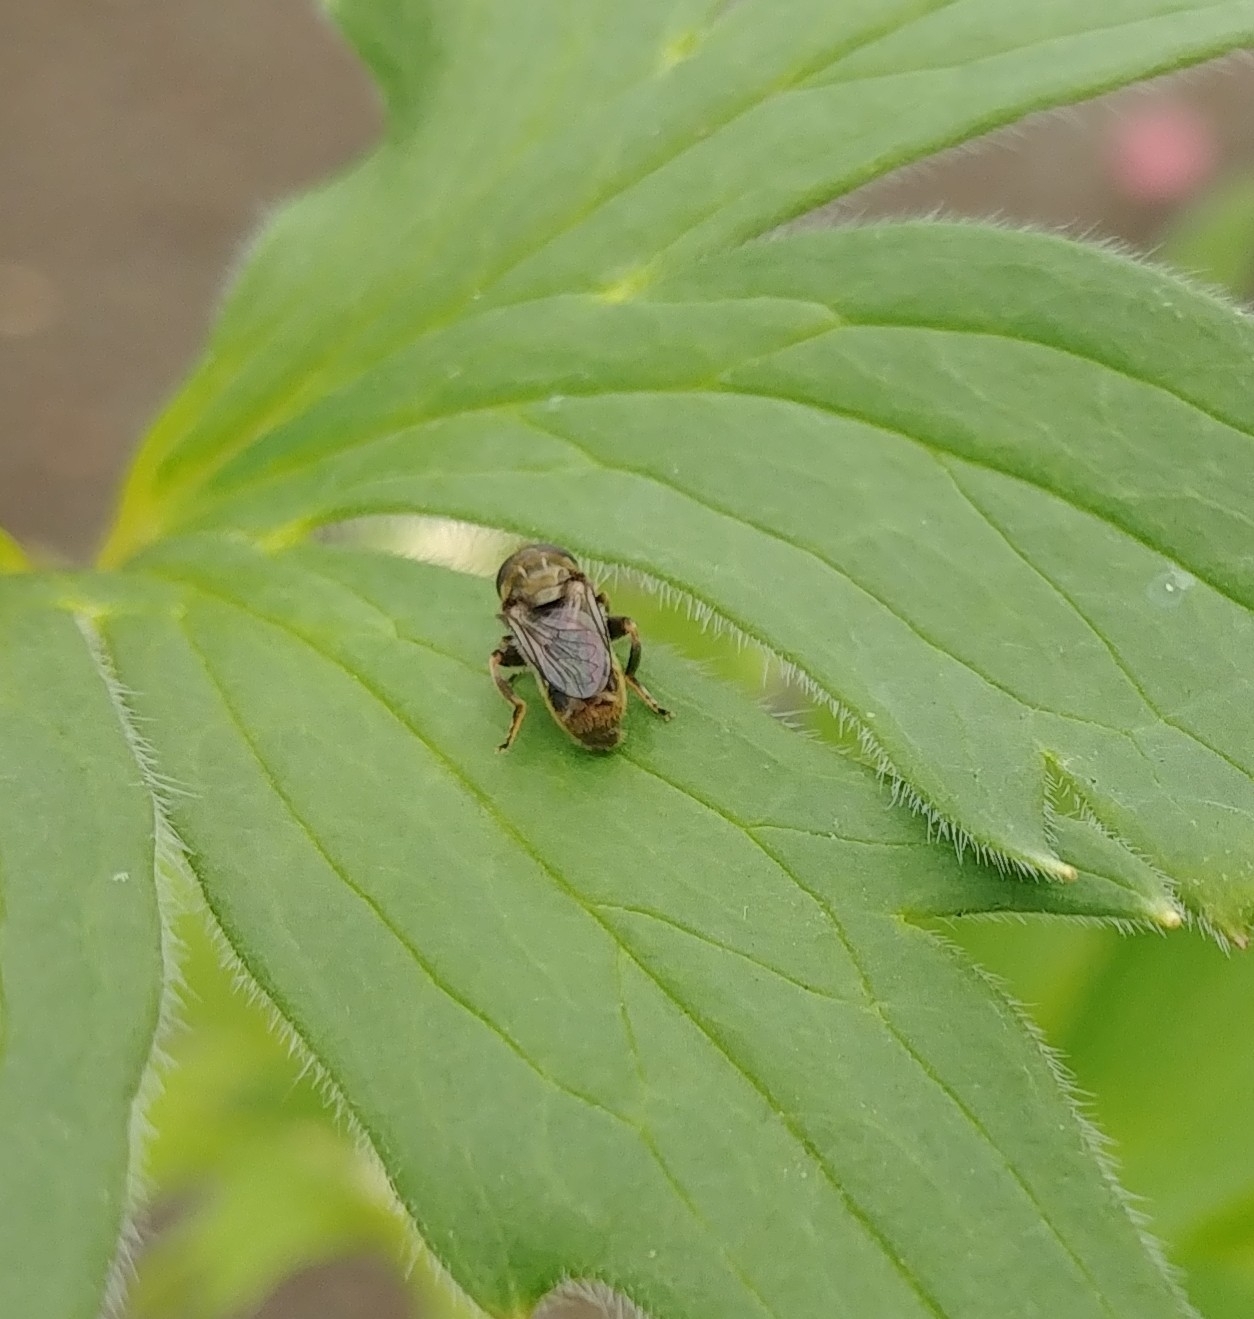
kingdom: Animalia
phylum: Arthropoda
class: Insecta
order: Diptera
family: Syrphidae
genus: Eumerus
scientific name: Eumerus
